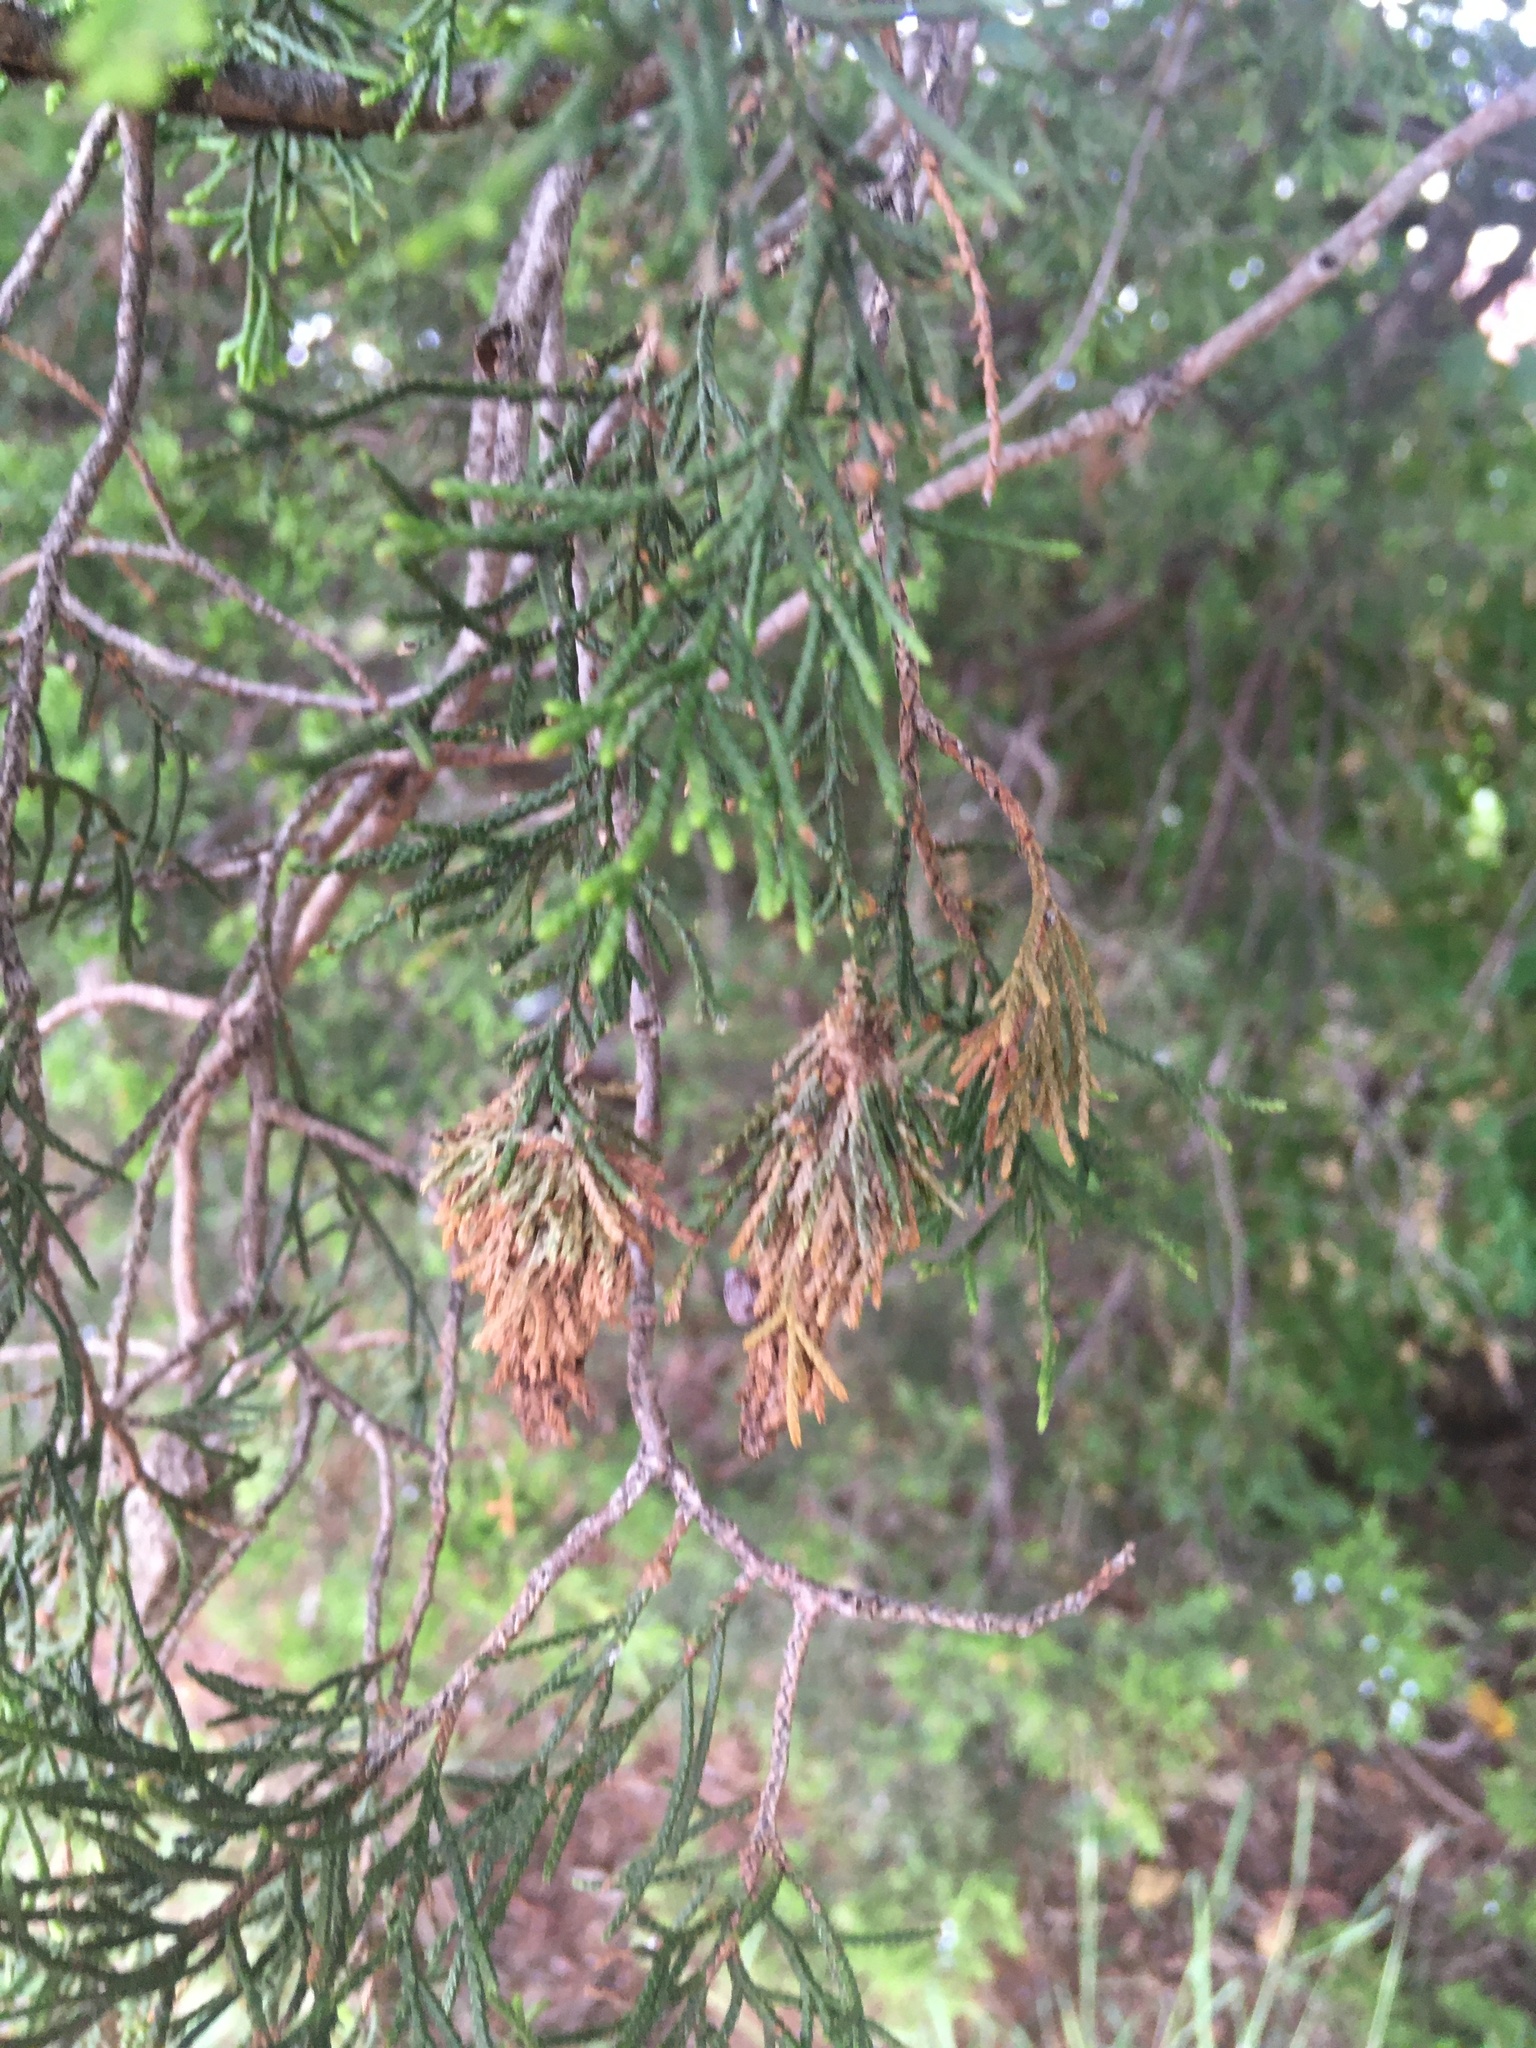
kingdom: Animalia
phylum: Arthropoda
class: Insecta
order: Lepidoptera
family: Psychidae
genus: Thyridopteryx
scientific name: Thyridopteryx ephemeraeformis
